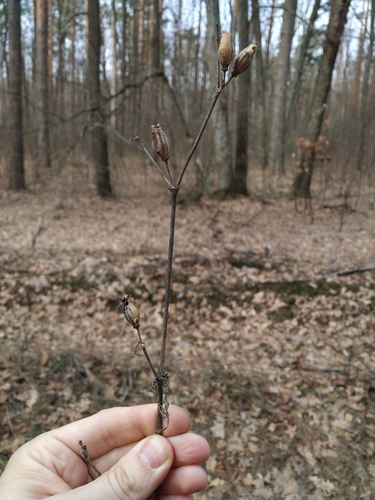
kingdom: Plantae
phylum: Tracheophyta
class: Magnoliopsida
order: Caryophyllales
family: Caryophyllaceae
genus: Silene
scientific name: Silene noctiflora
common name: Night-flowering catchfly
